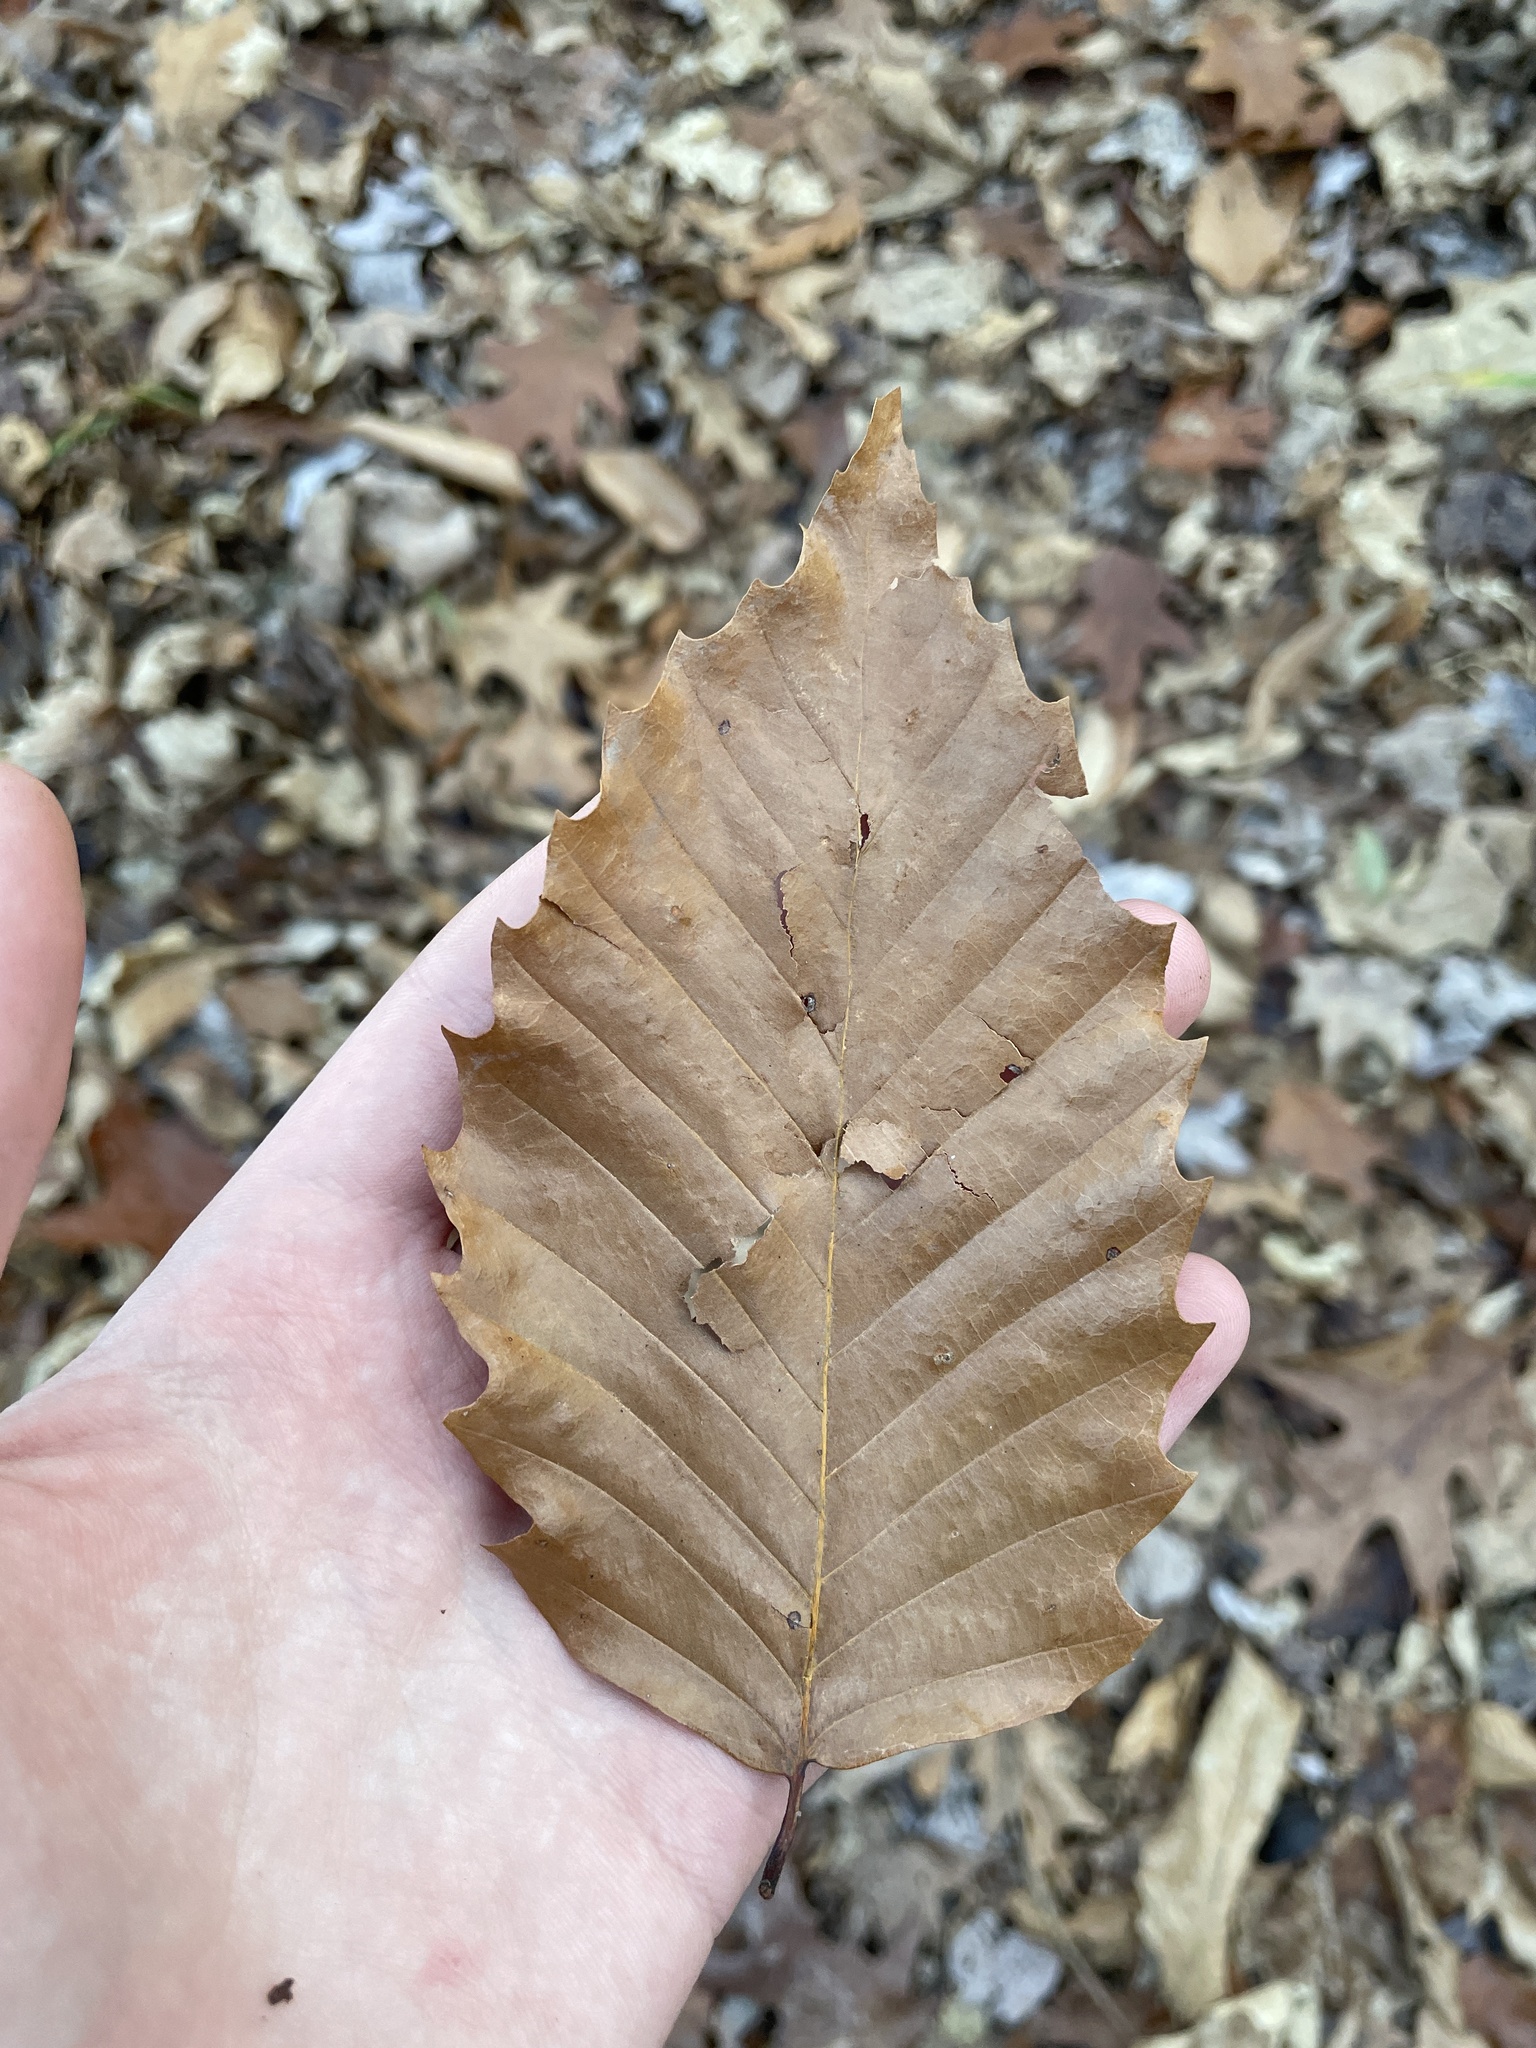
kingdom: Plantae
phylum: Tracheophyta
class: Magnoliopsida
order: Fagales
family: Fagaceae
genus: Fagus
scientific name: Fagus grandifolia
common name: American beech
